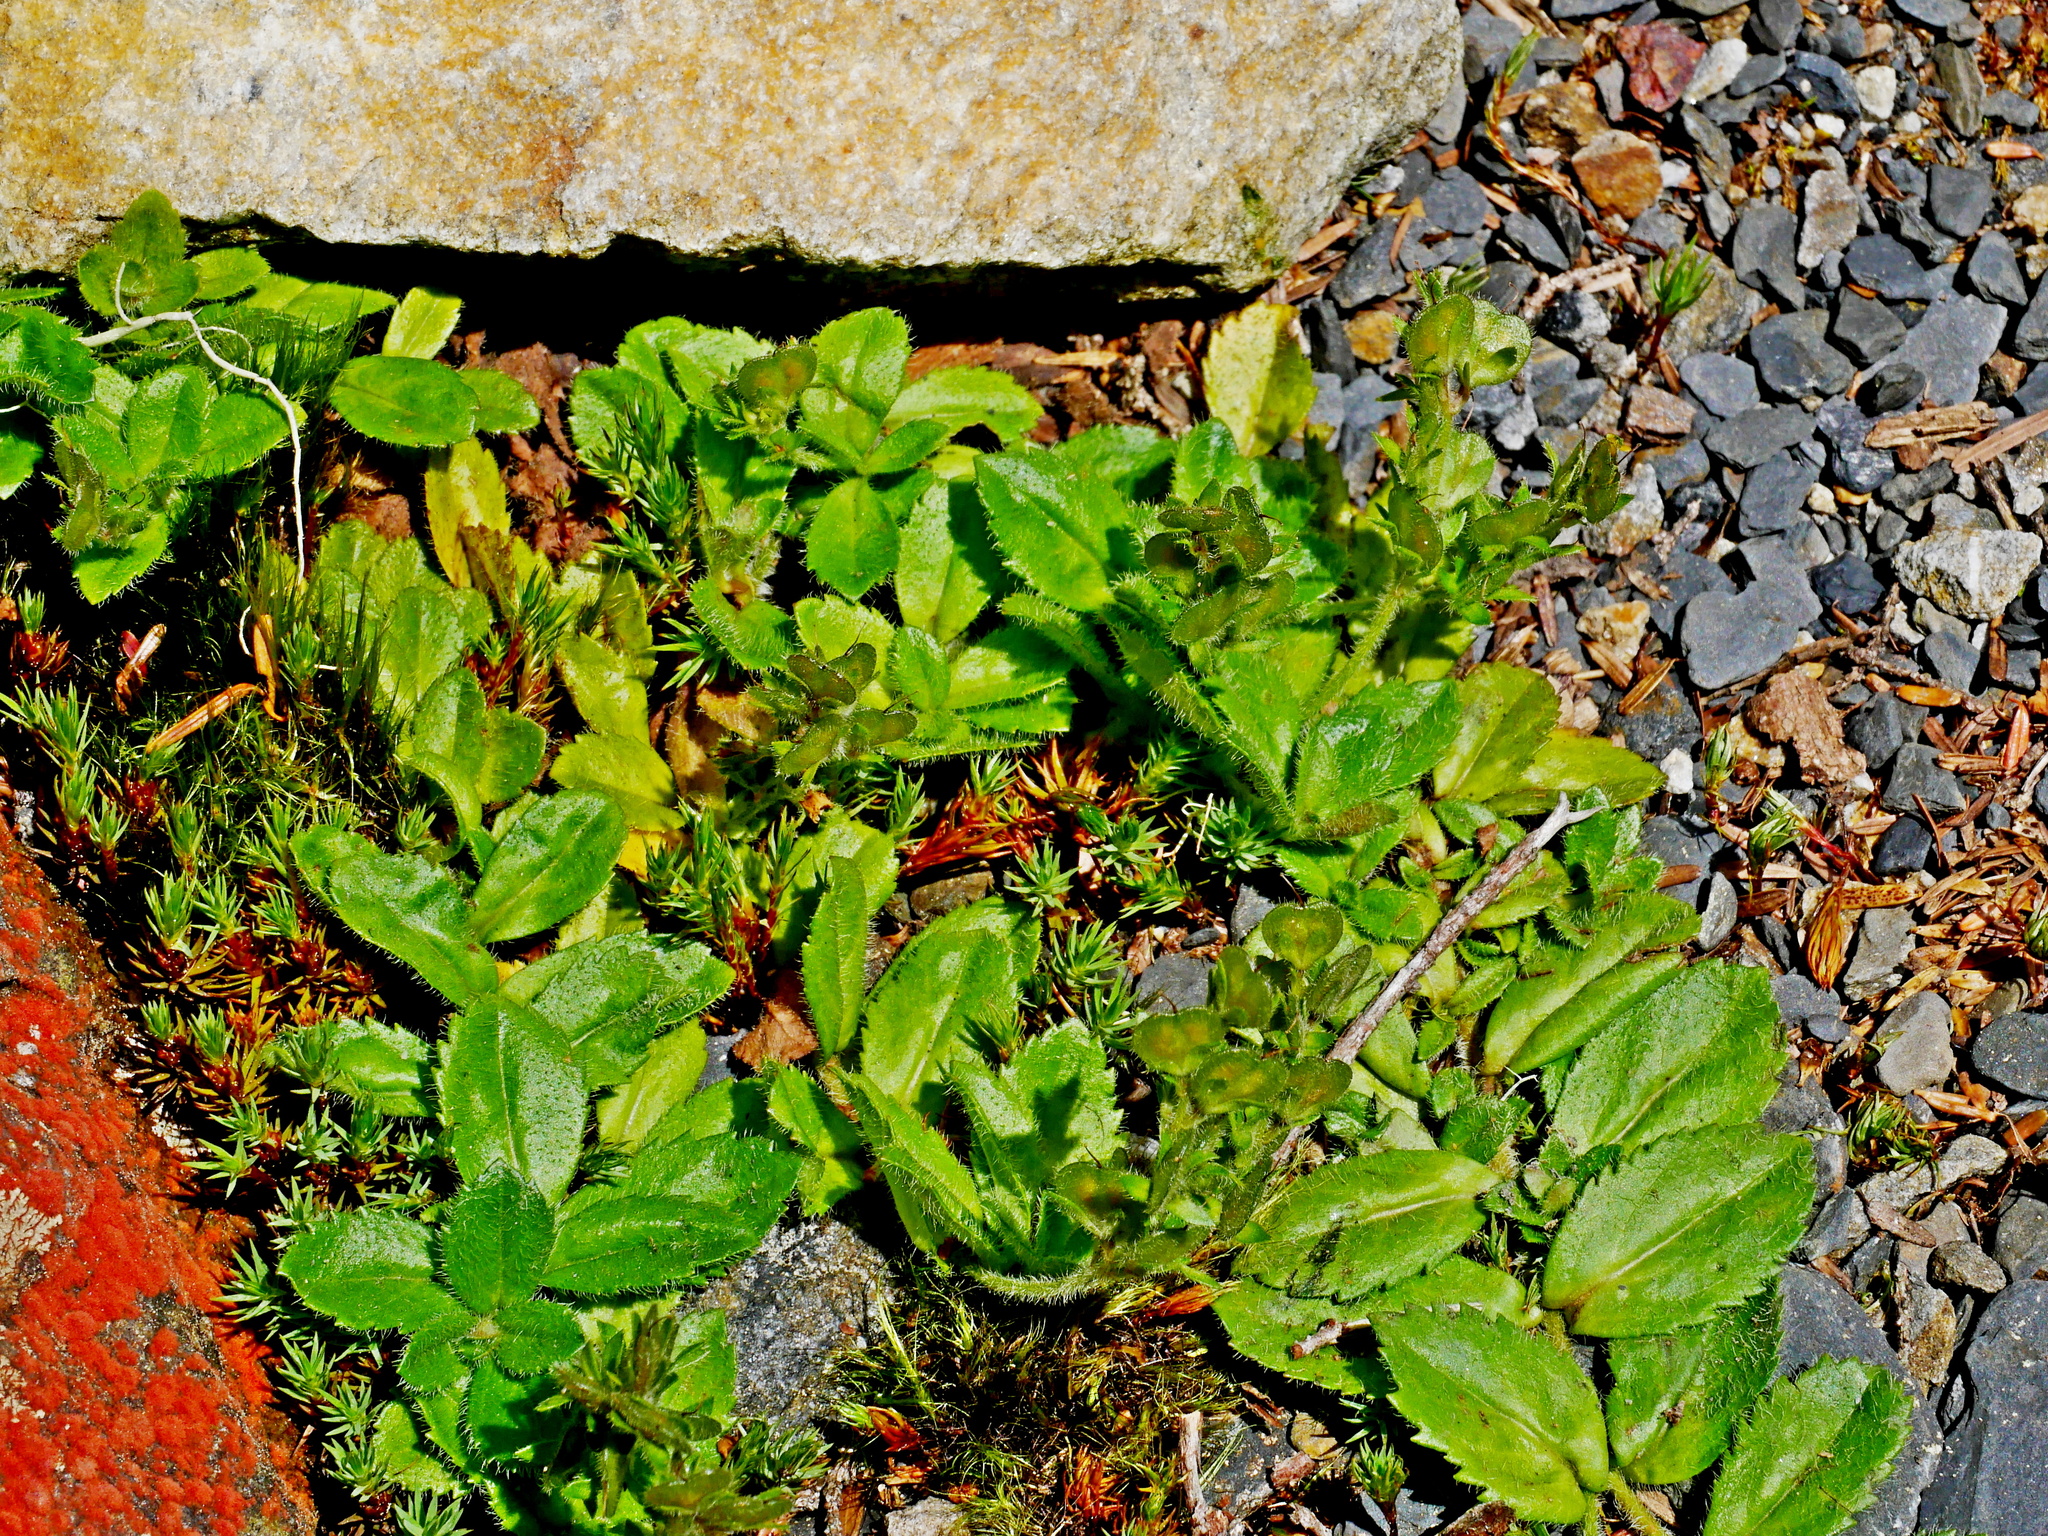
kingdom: Plantae
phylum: Tracheophyta
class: Magnoliopsida
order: Lamiales
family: Plantaginaceae
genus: Veronica
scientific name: Veronica morrisonicola
